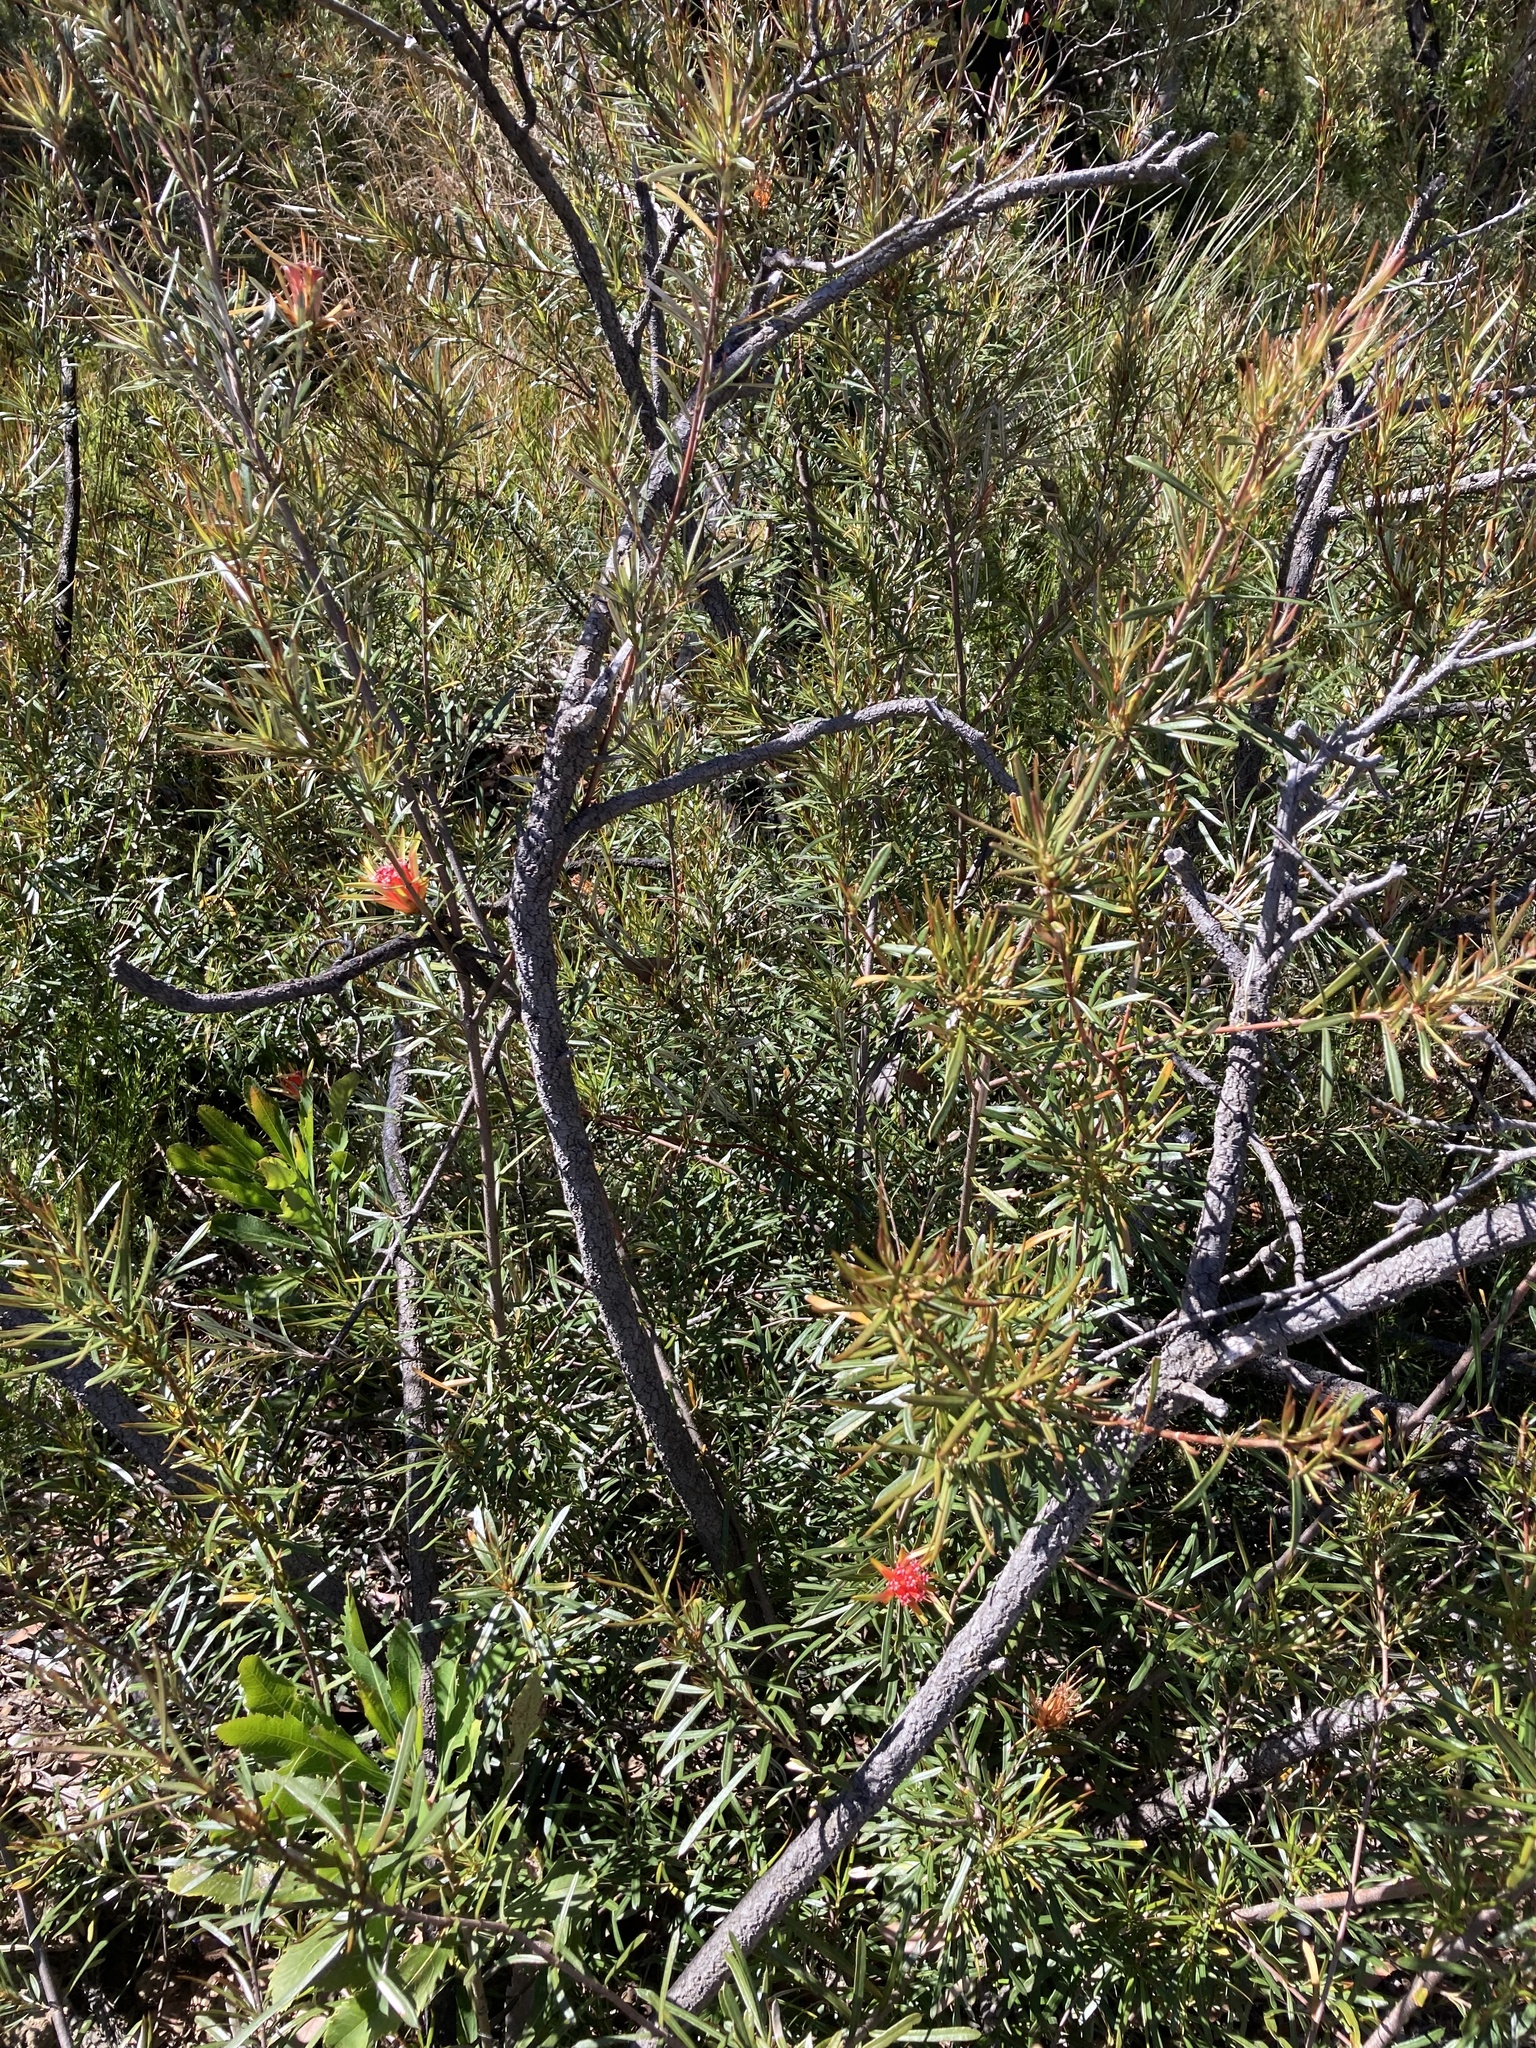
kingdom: Plantae
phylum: Tracheophyta
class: Magnoliopsida
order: Proteales
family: Proteaceae
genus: Lambertia
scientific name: Lambertia formosa
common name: Mountain-devil
